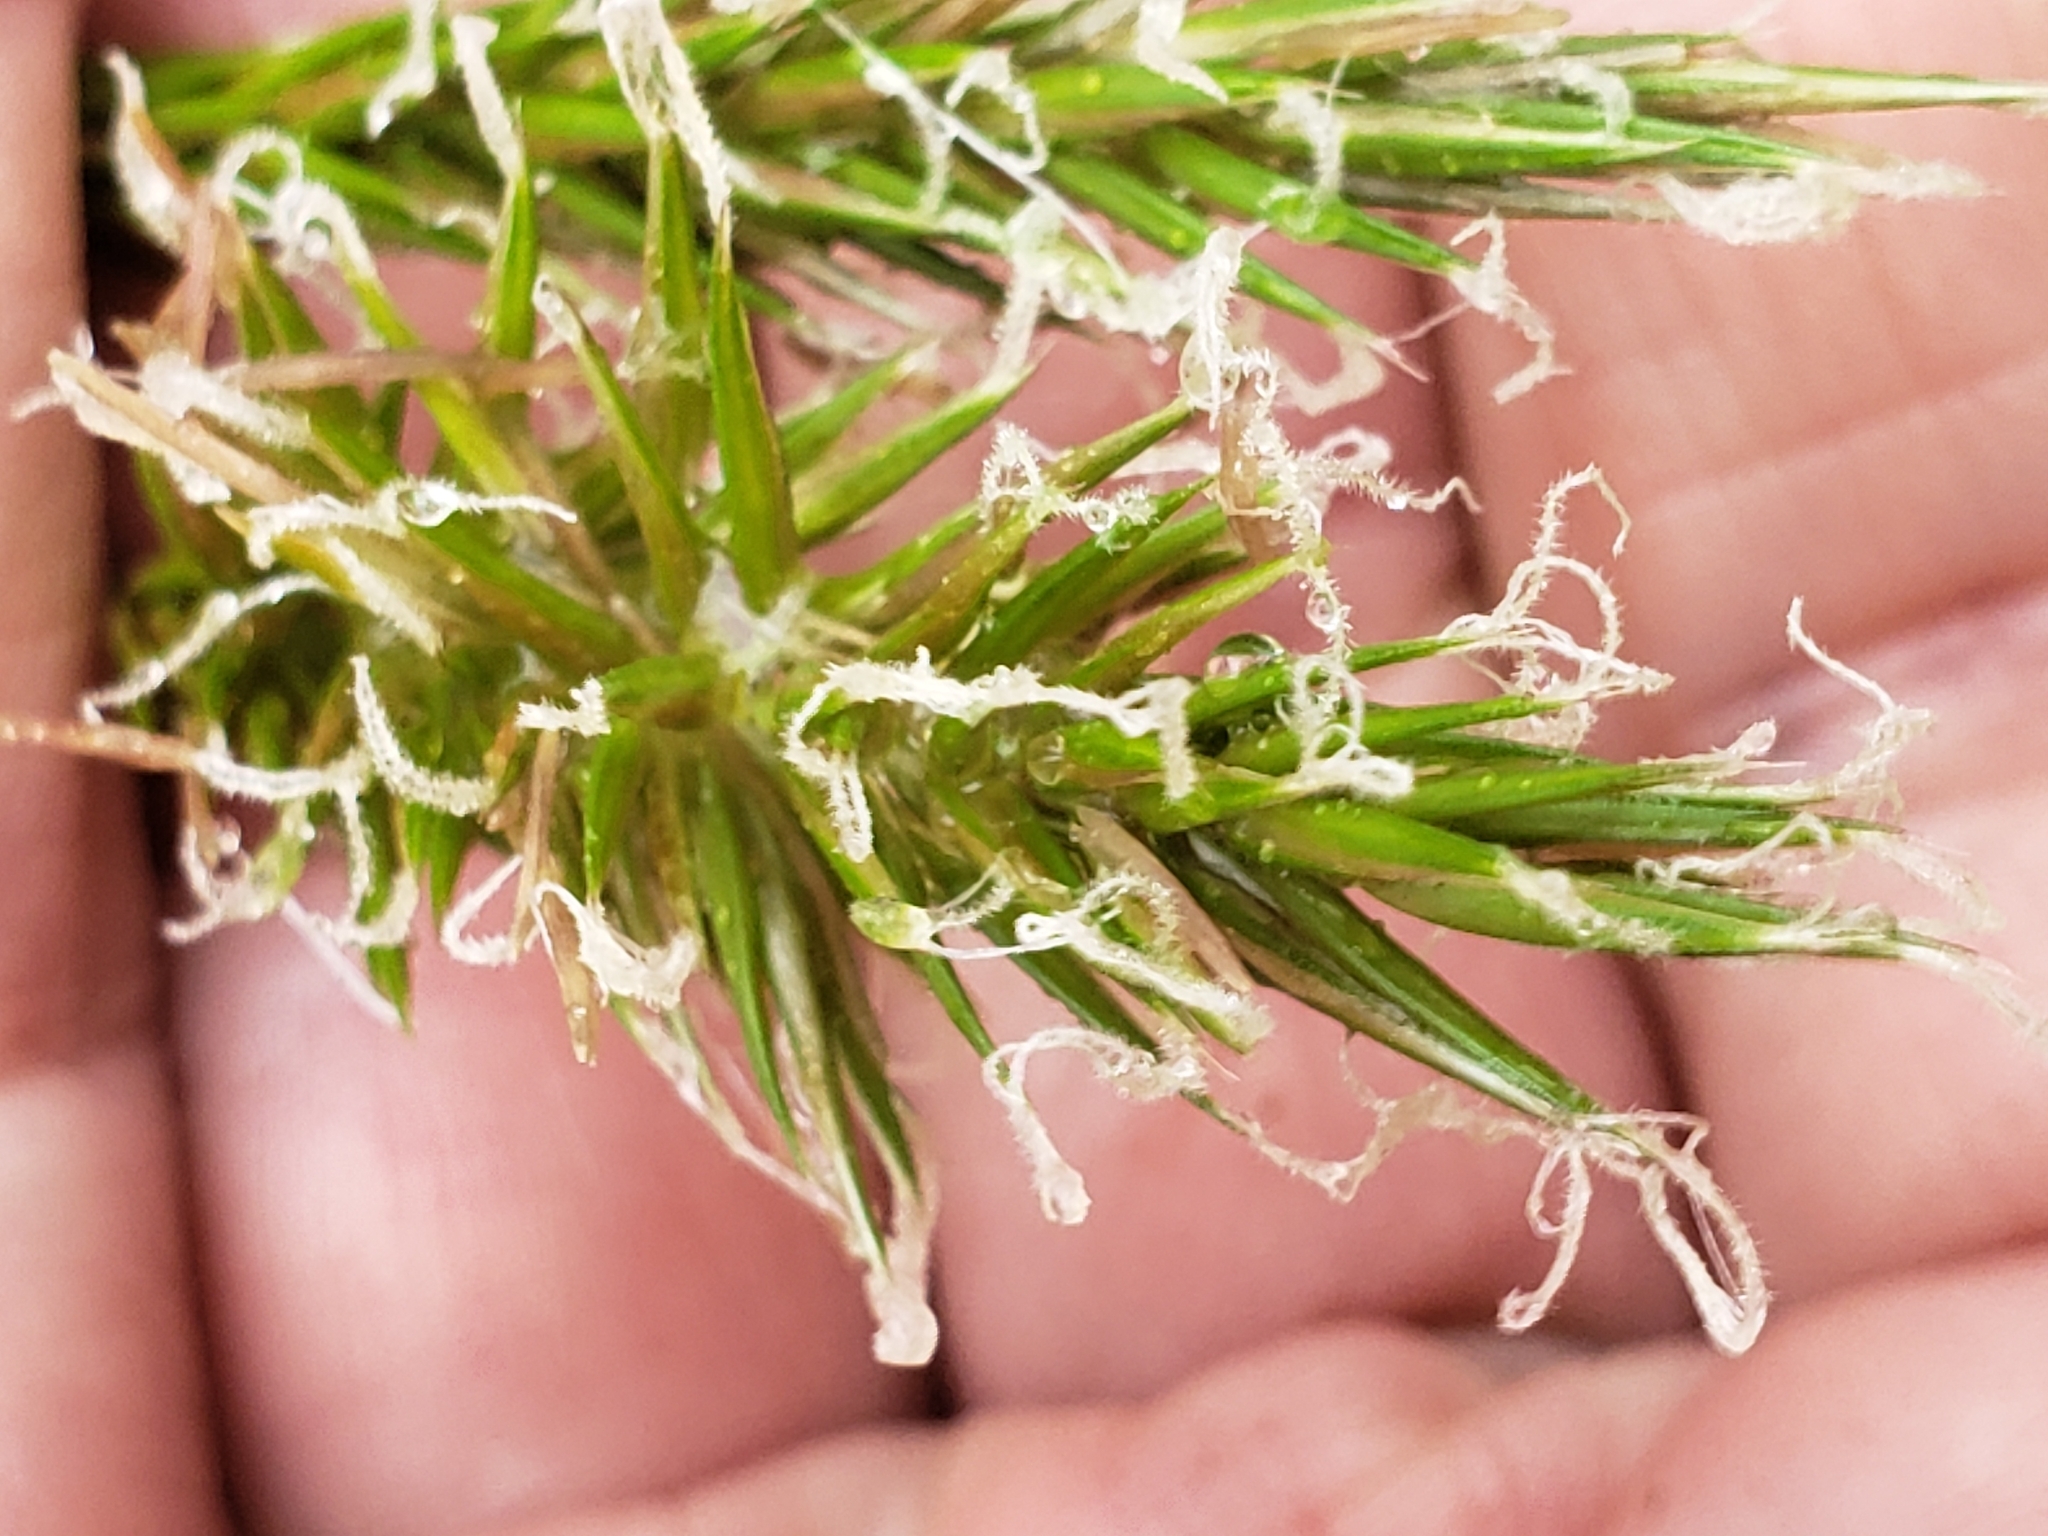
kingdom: Plantae
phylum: Tracheophyta
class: Liliopsida
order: Poales
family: Poaceae
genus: Anthoxanthum
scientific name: Anthoxanthum odoratum
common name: Sweet vernalgrass
